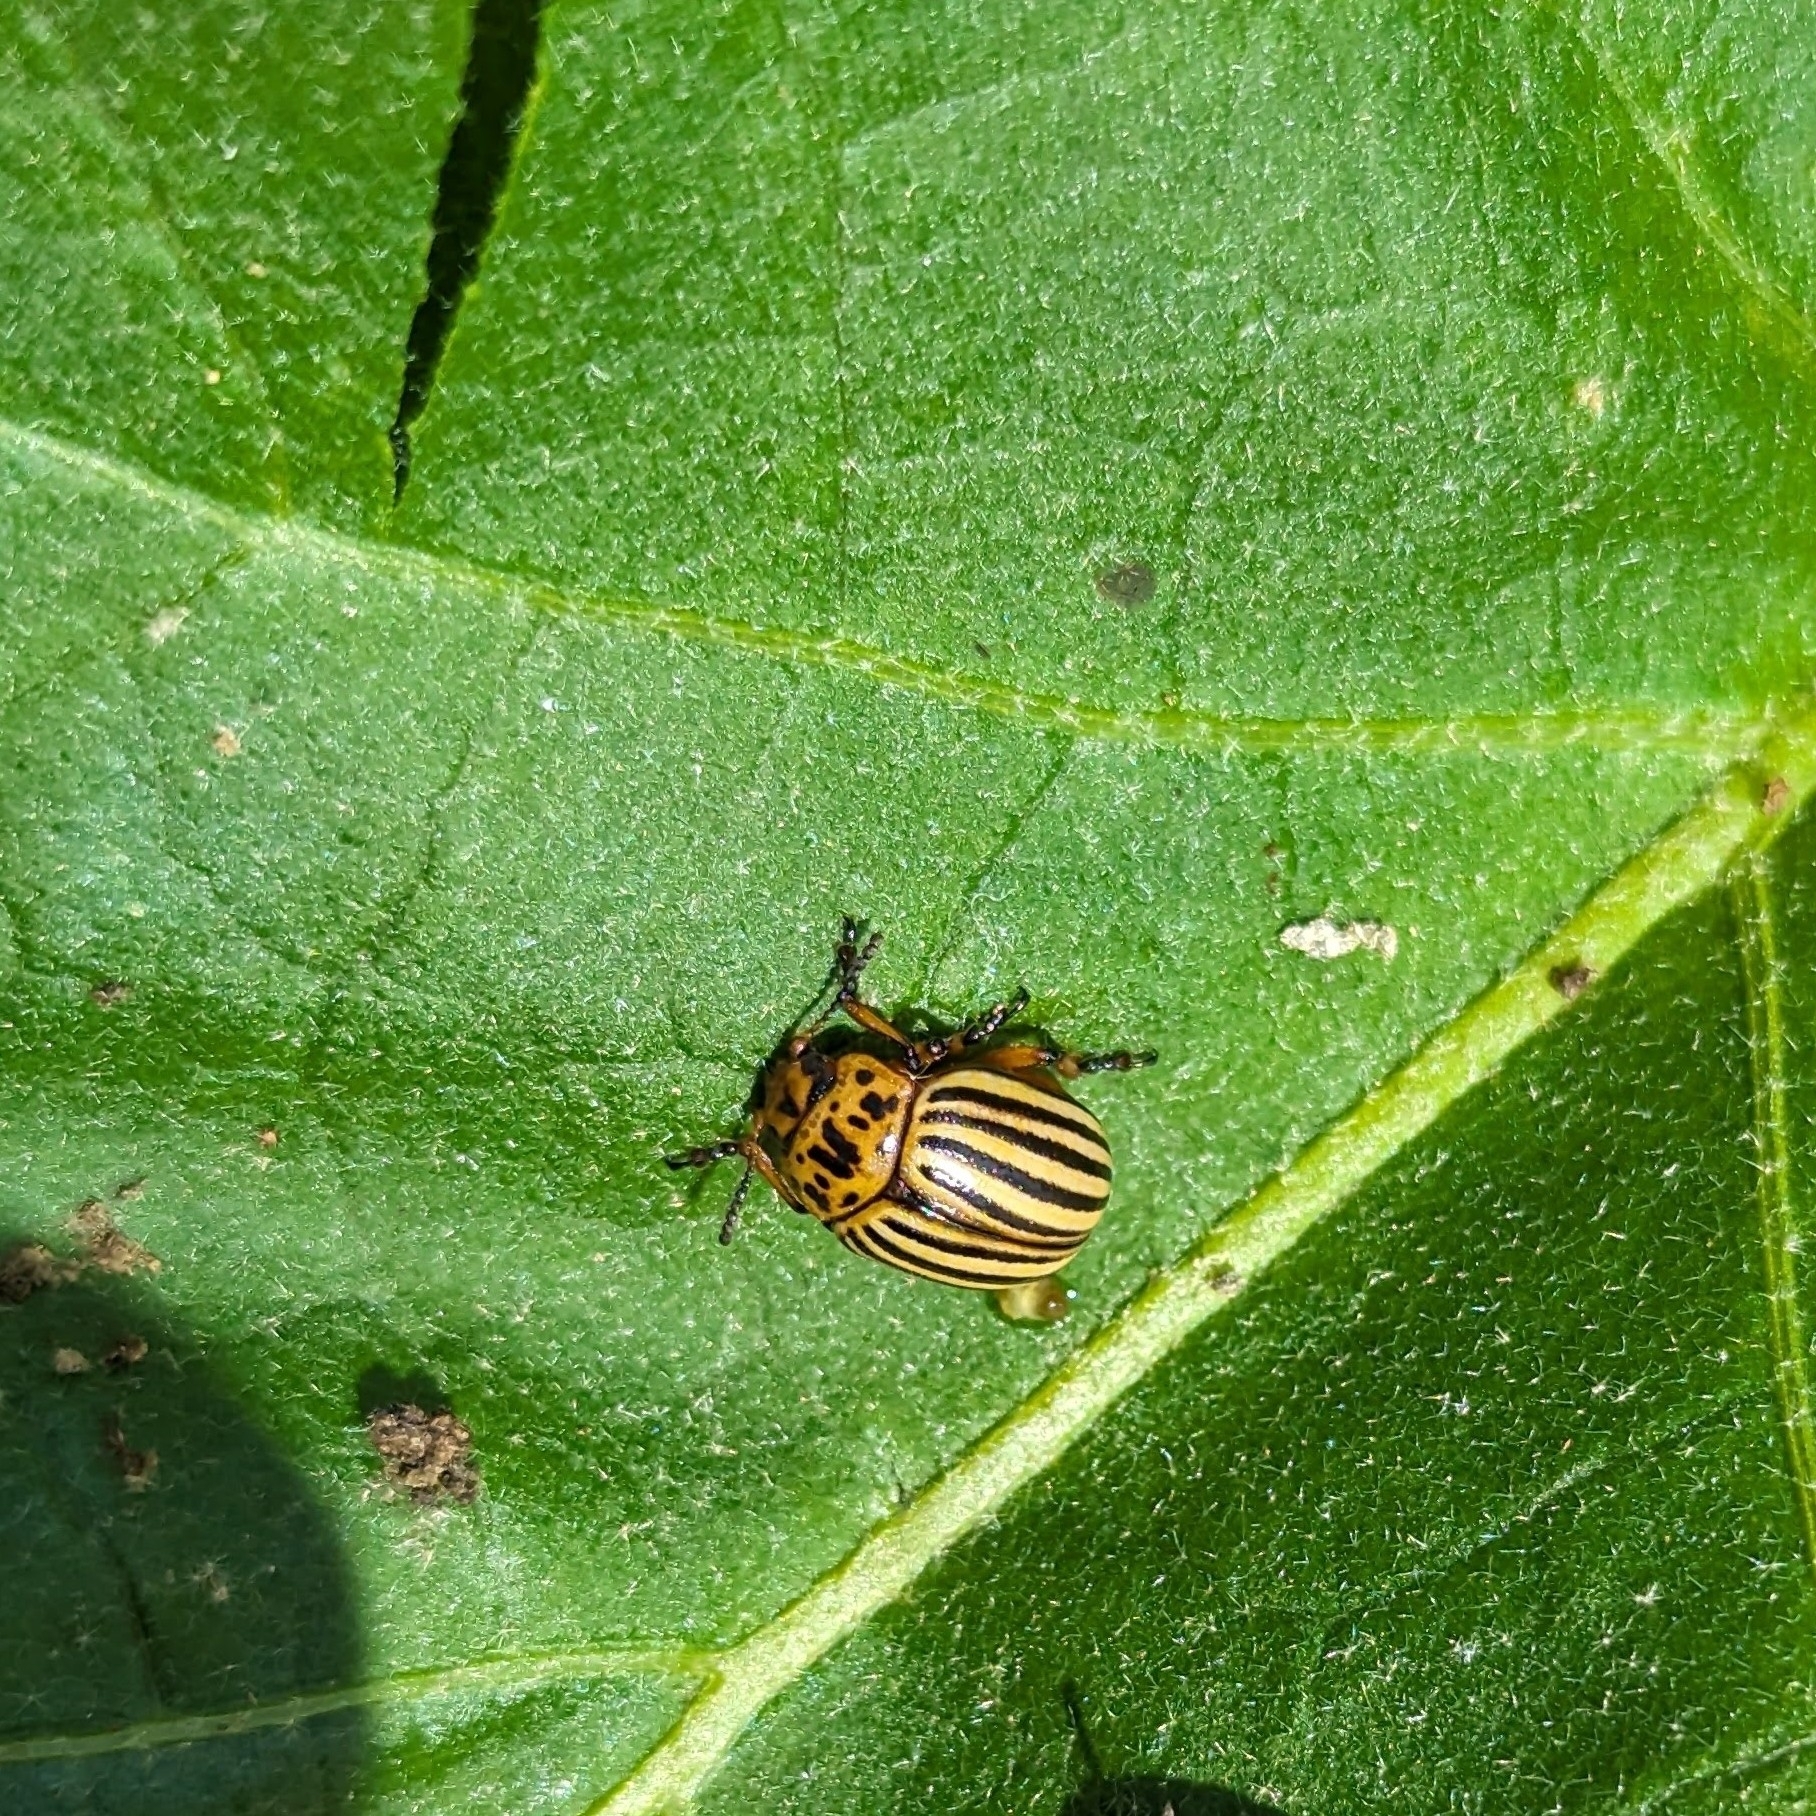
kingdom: Animalia
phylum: Arthropoda
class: Insecta
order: Coleoptera
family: Chrysomelidae
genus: Leptinotarsa
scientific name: Leptinotarsa decemlineata
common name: Colorado potato beetle
